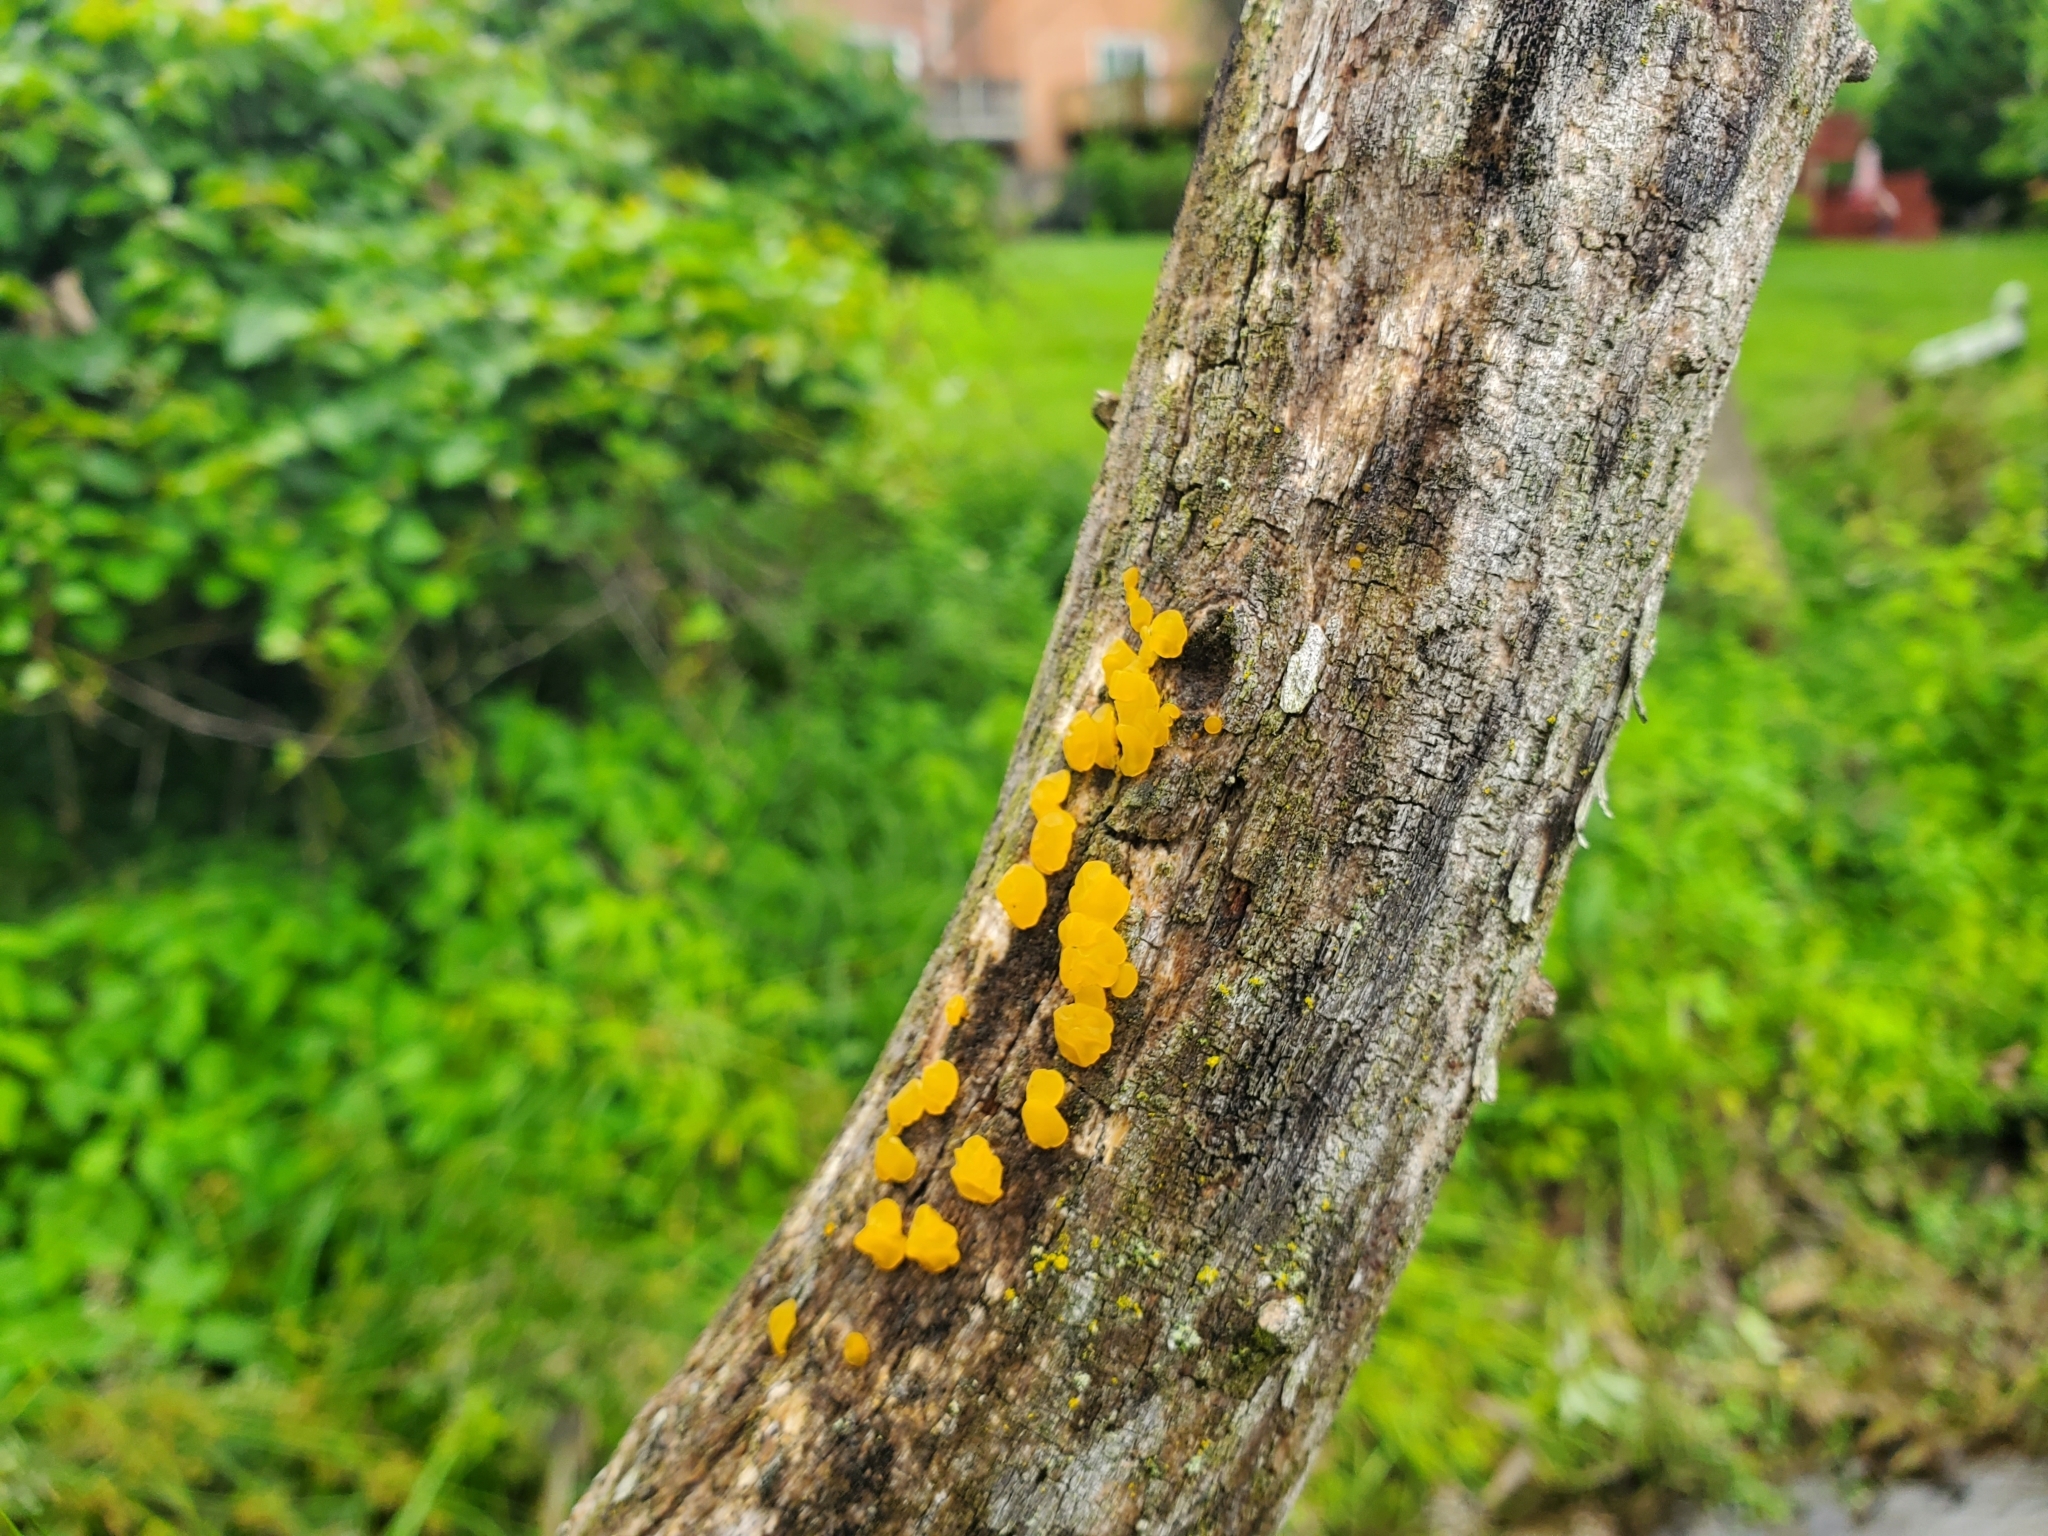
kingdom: Fungi
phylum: Basidiomycota
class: Dacrymycetes
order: Dacrymycetales
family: Dacrymycetaceae
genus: Dacrymyces
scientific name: Dacrymyces stillatus
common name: Common jelly spot
